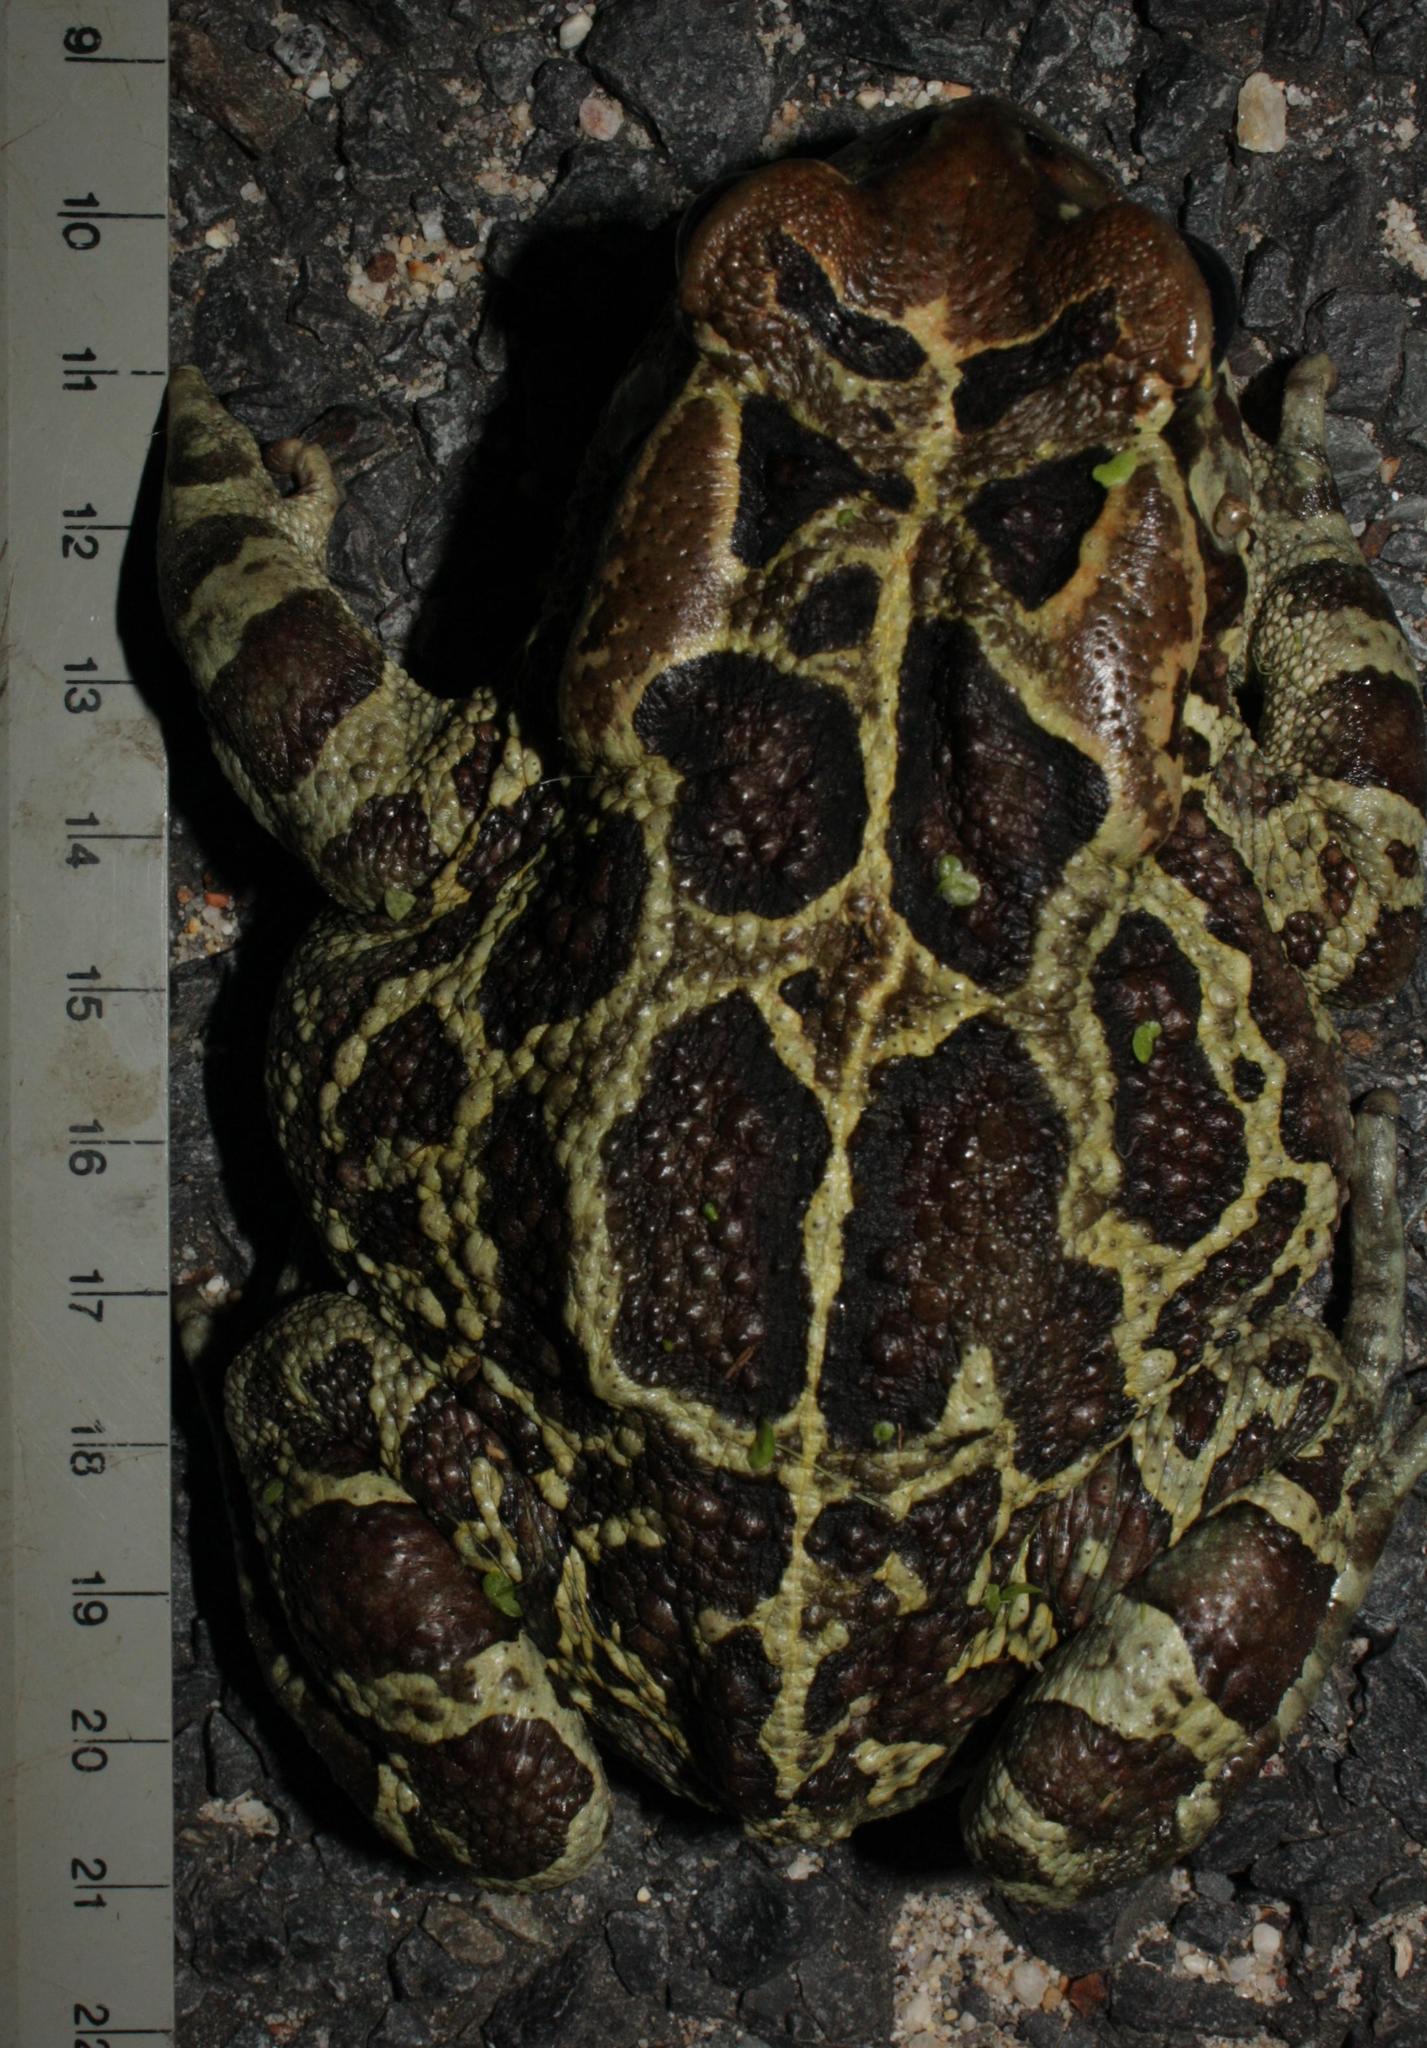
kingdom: Animalia
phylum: Chordata
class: Amphibia
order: Anura
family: Bufonidae
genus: Sclerophrys
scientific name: Sclerophrys pantherina
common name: Panther toad
